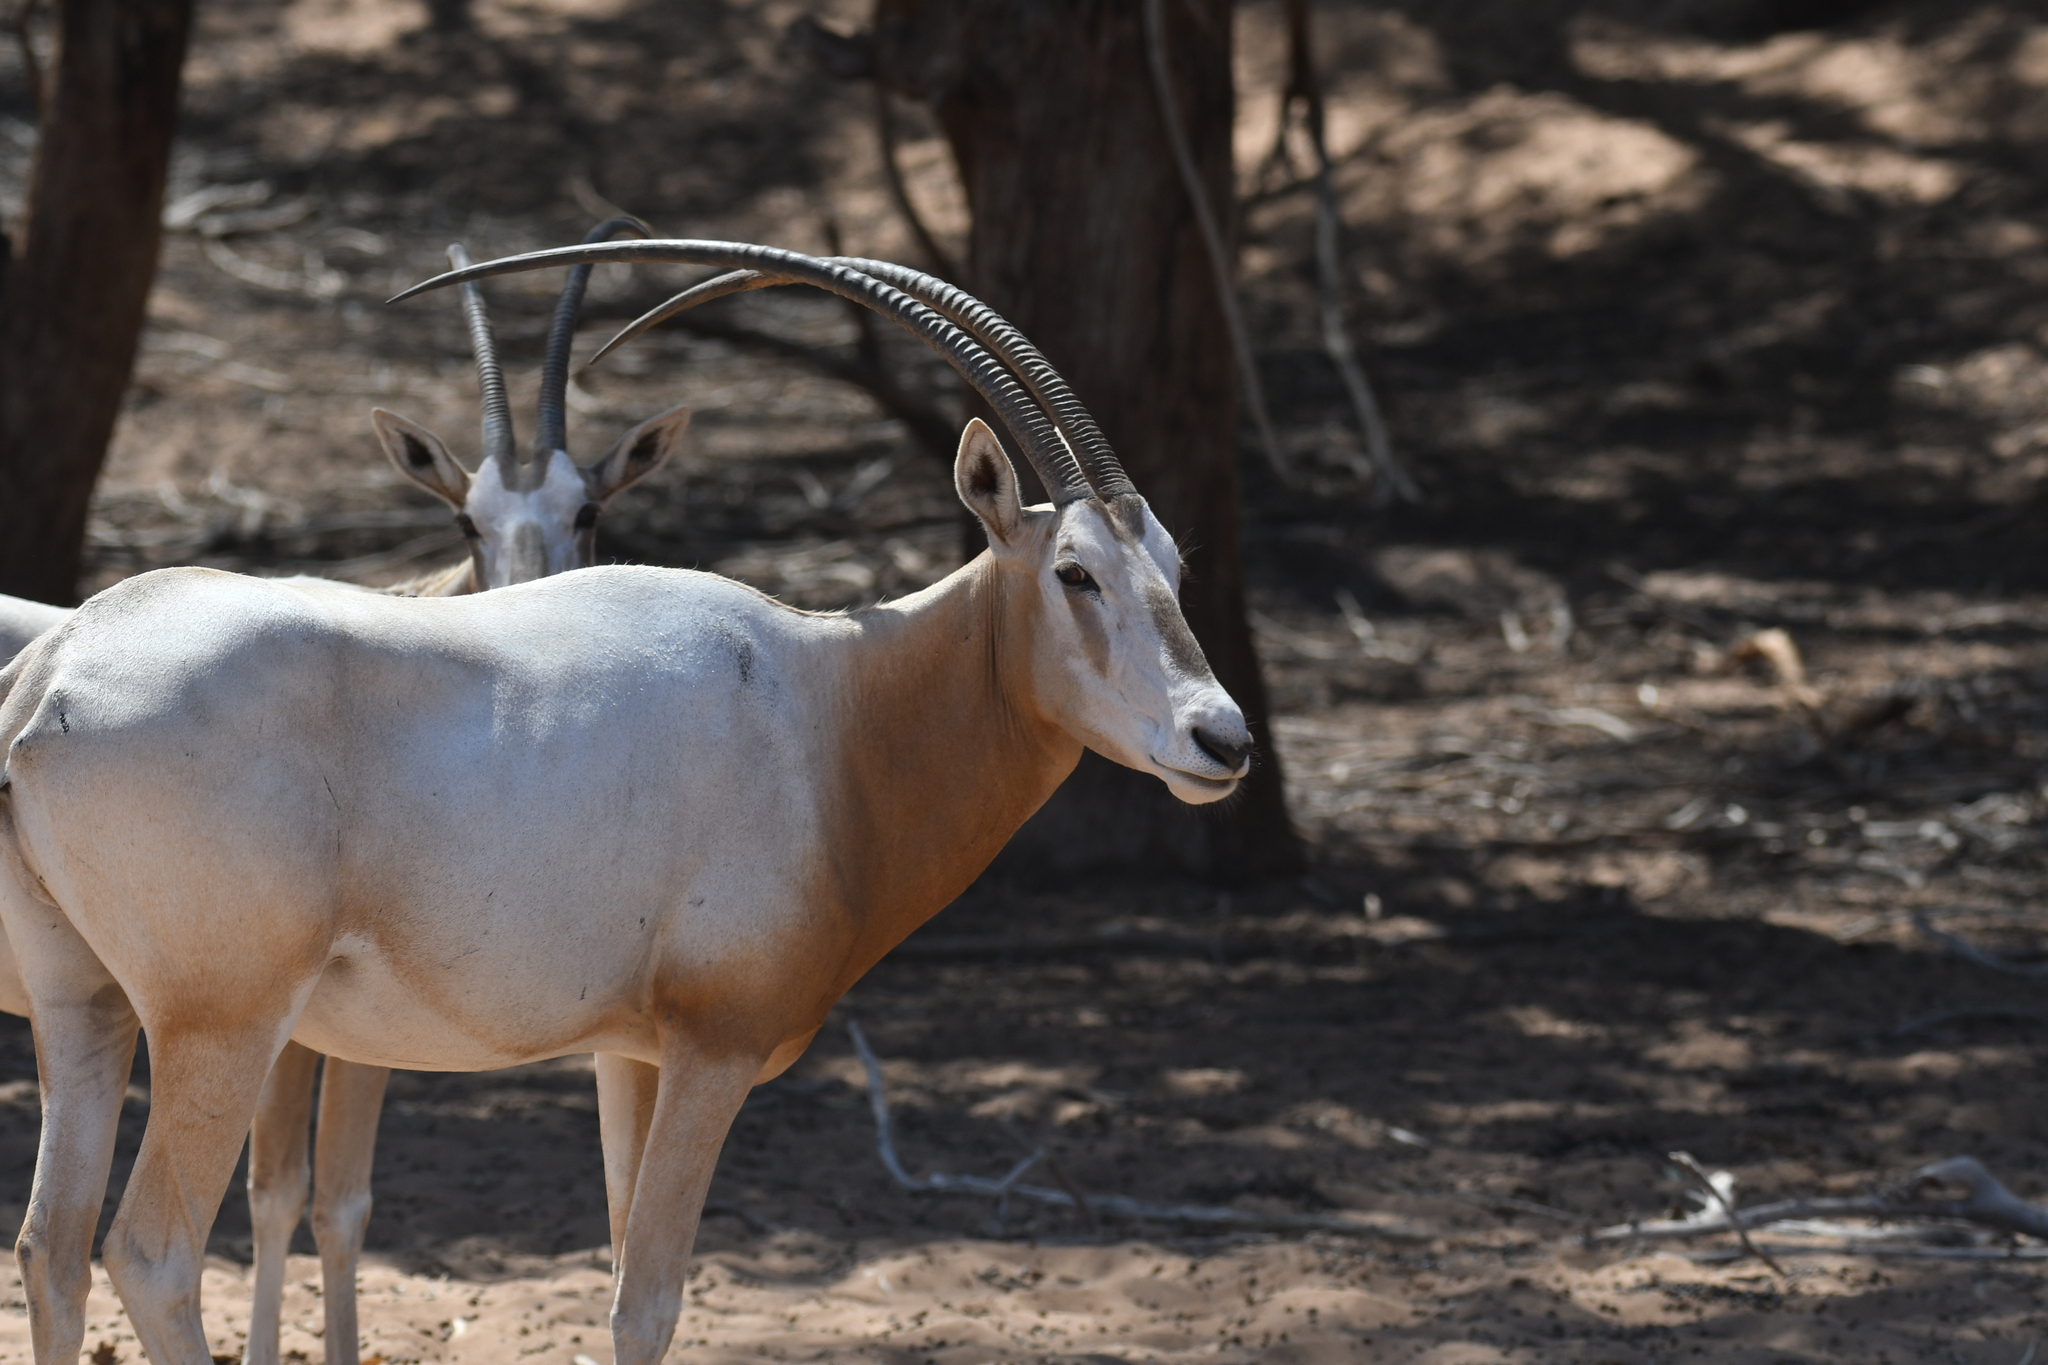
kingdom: Animalia
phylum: Chordata
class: Mammalia
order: Artiodactyla
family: Bovidae
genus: Oryx
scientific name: Oryx dammah
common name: Scimitar-horned oryx
